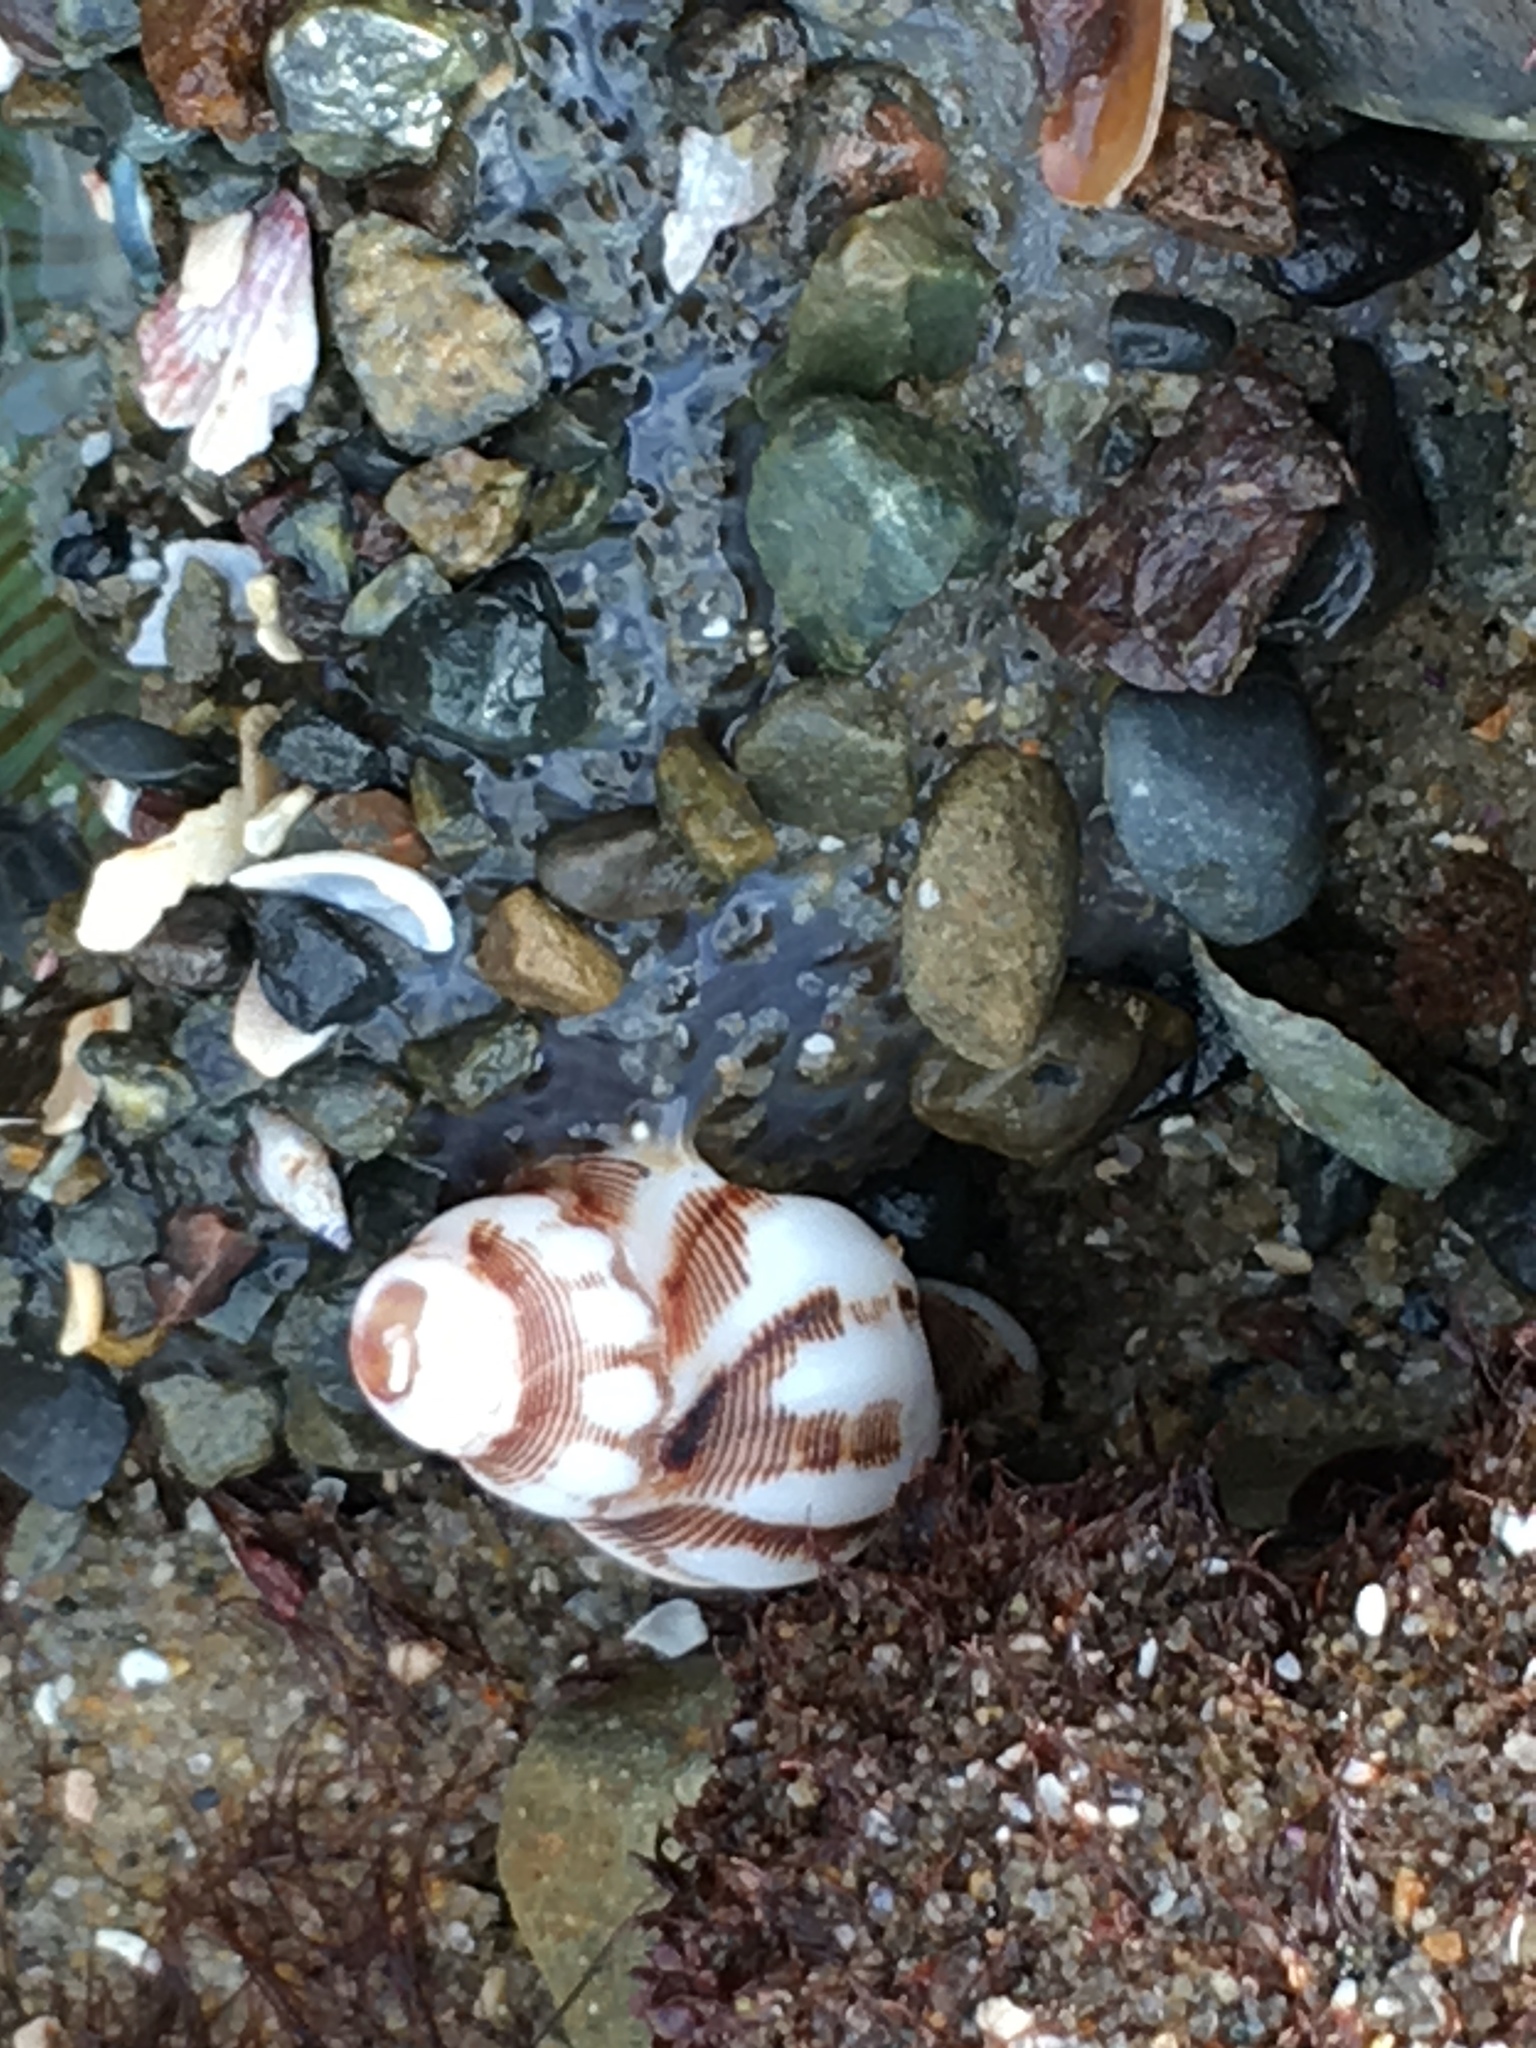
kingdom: Animalia
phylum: Mollusca
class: Gastropoda
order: Neogastropoda
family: Muricidae
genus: Roperia
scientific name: Roperia poulsoni
